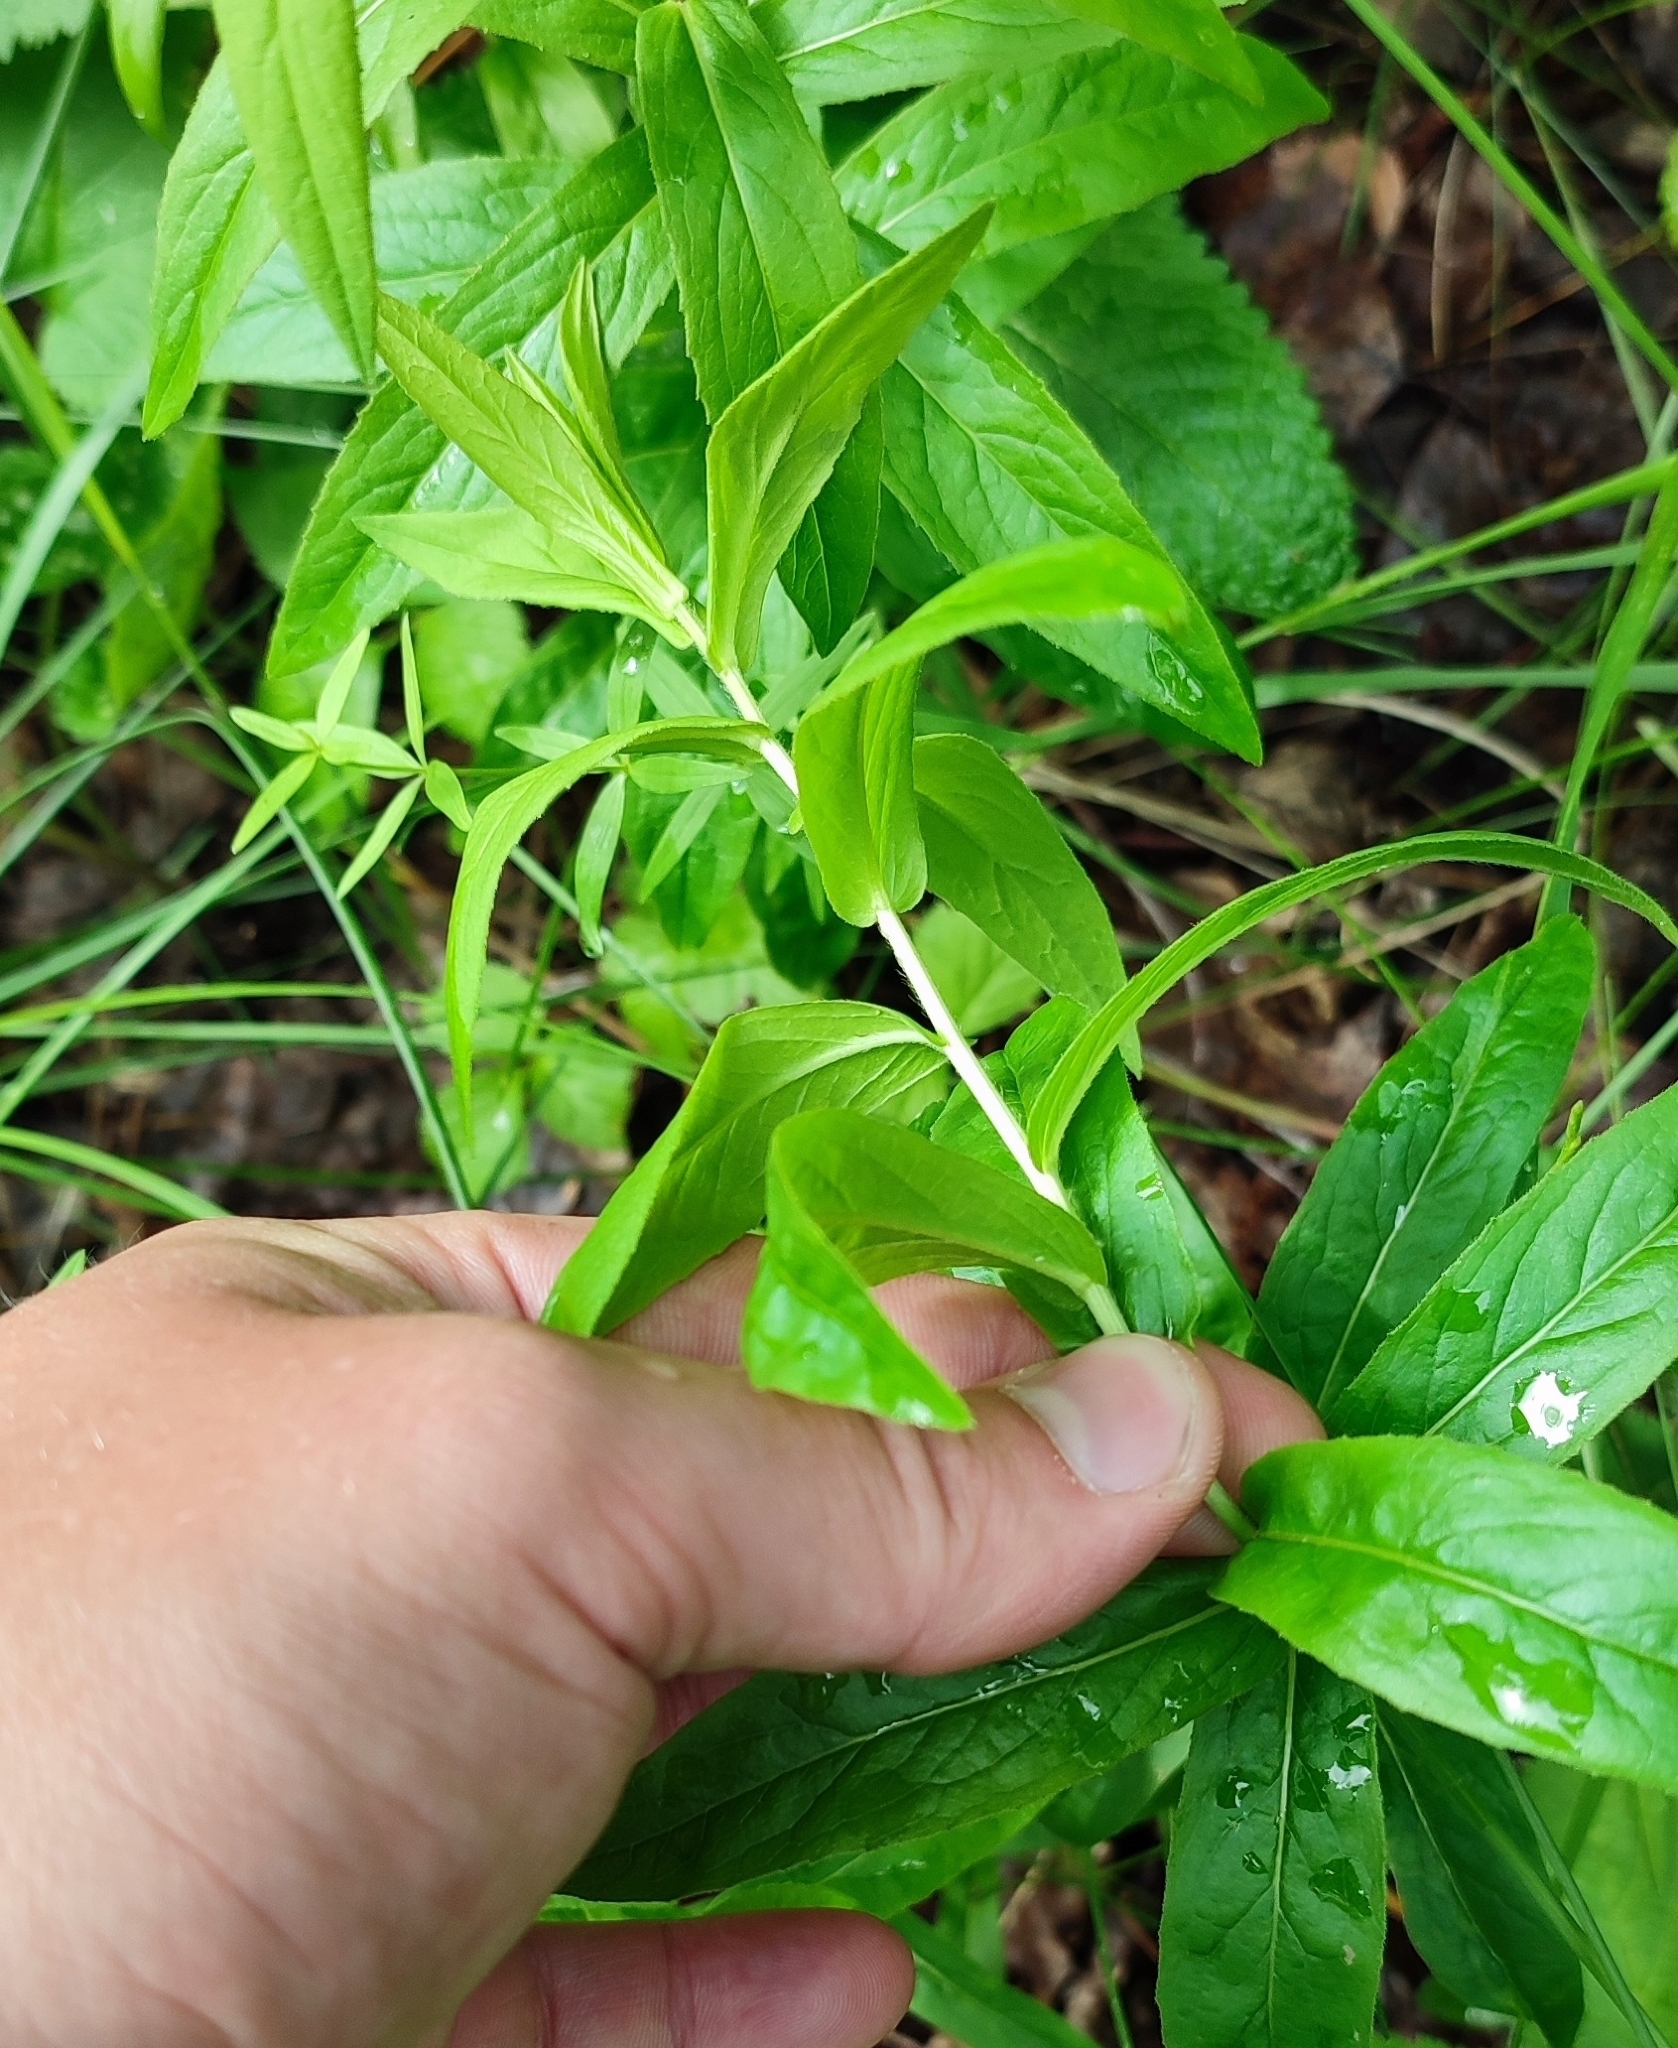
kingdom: Plantae
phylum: Tracheophyta
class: Magnoliopsida
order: Asterales
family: Asteraceae
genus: Pentanema
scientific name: Pentanema salicinum
